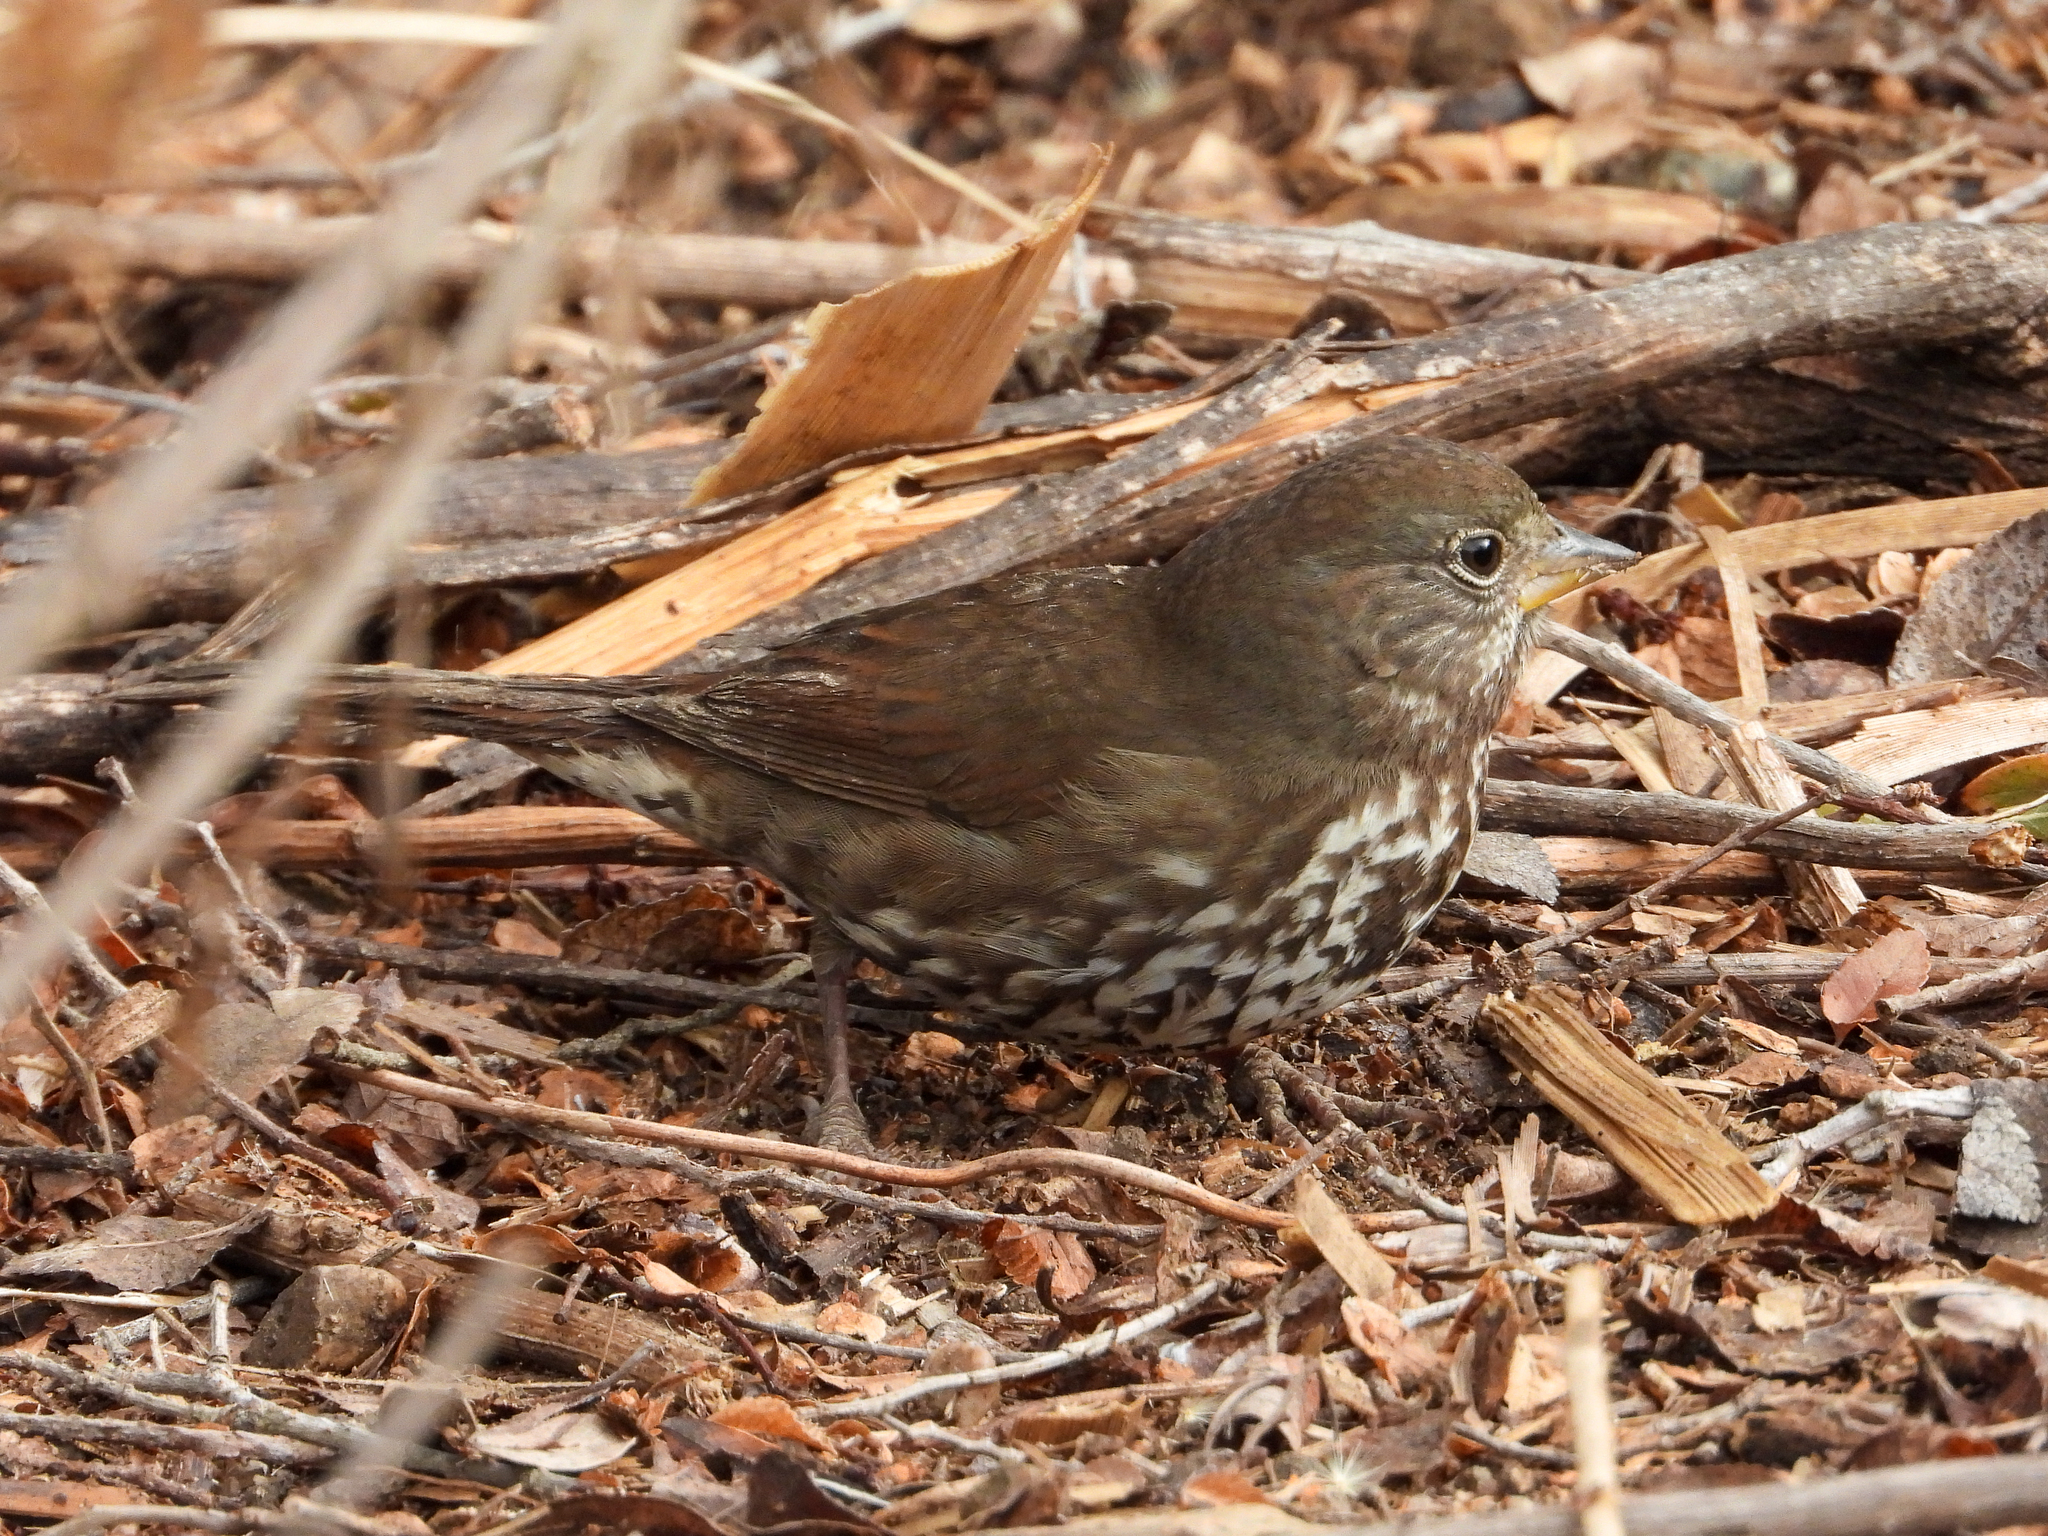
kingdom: Animalia
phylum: Chordata
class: Aves
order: Passeriformes
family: Passerellidae
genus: Passerella
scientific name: Passerella iliaca
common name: Fox sparrow
